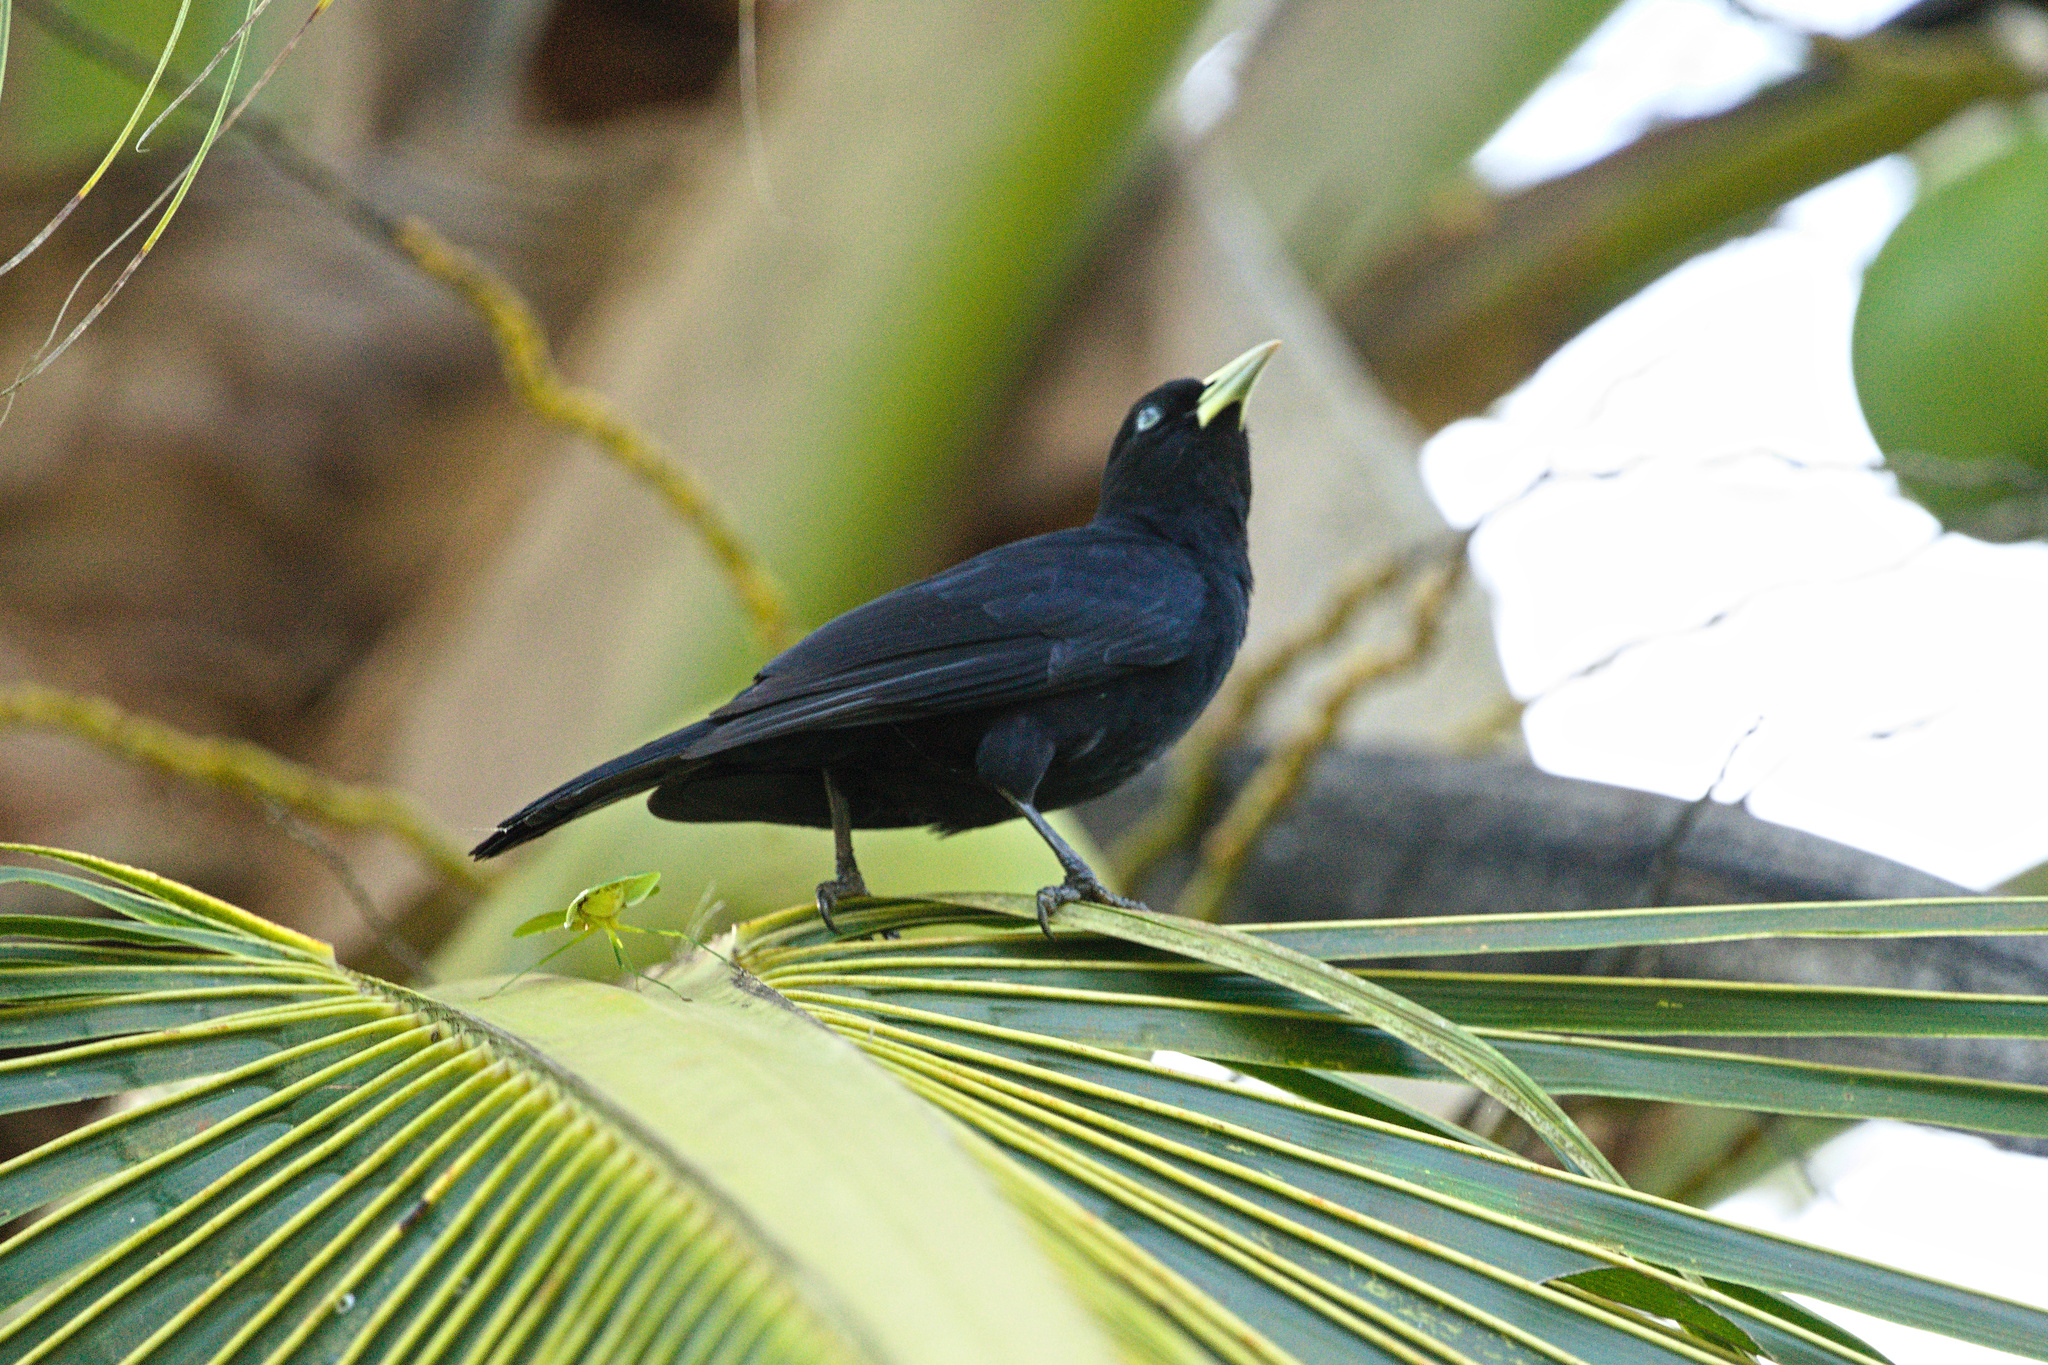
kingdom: Animalia
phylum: Chordata
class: Aves
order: Passeriformes
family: Icteridae
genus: Cacicus
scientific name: Cacicus uropygialis
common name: Scarlet-rumped cacique
